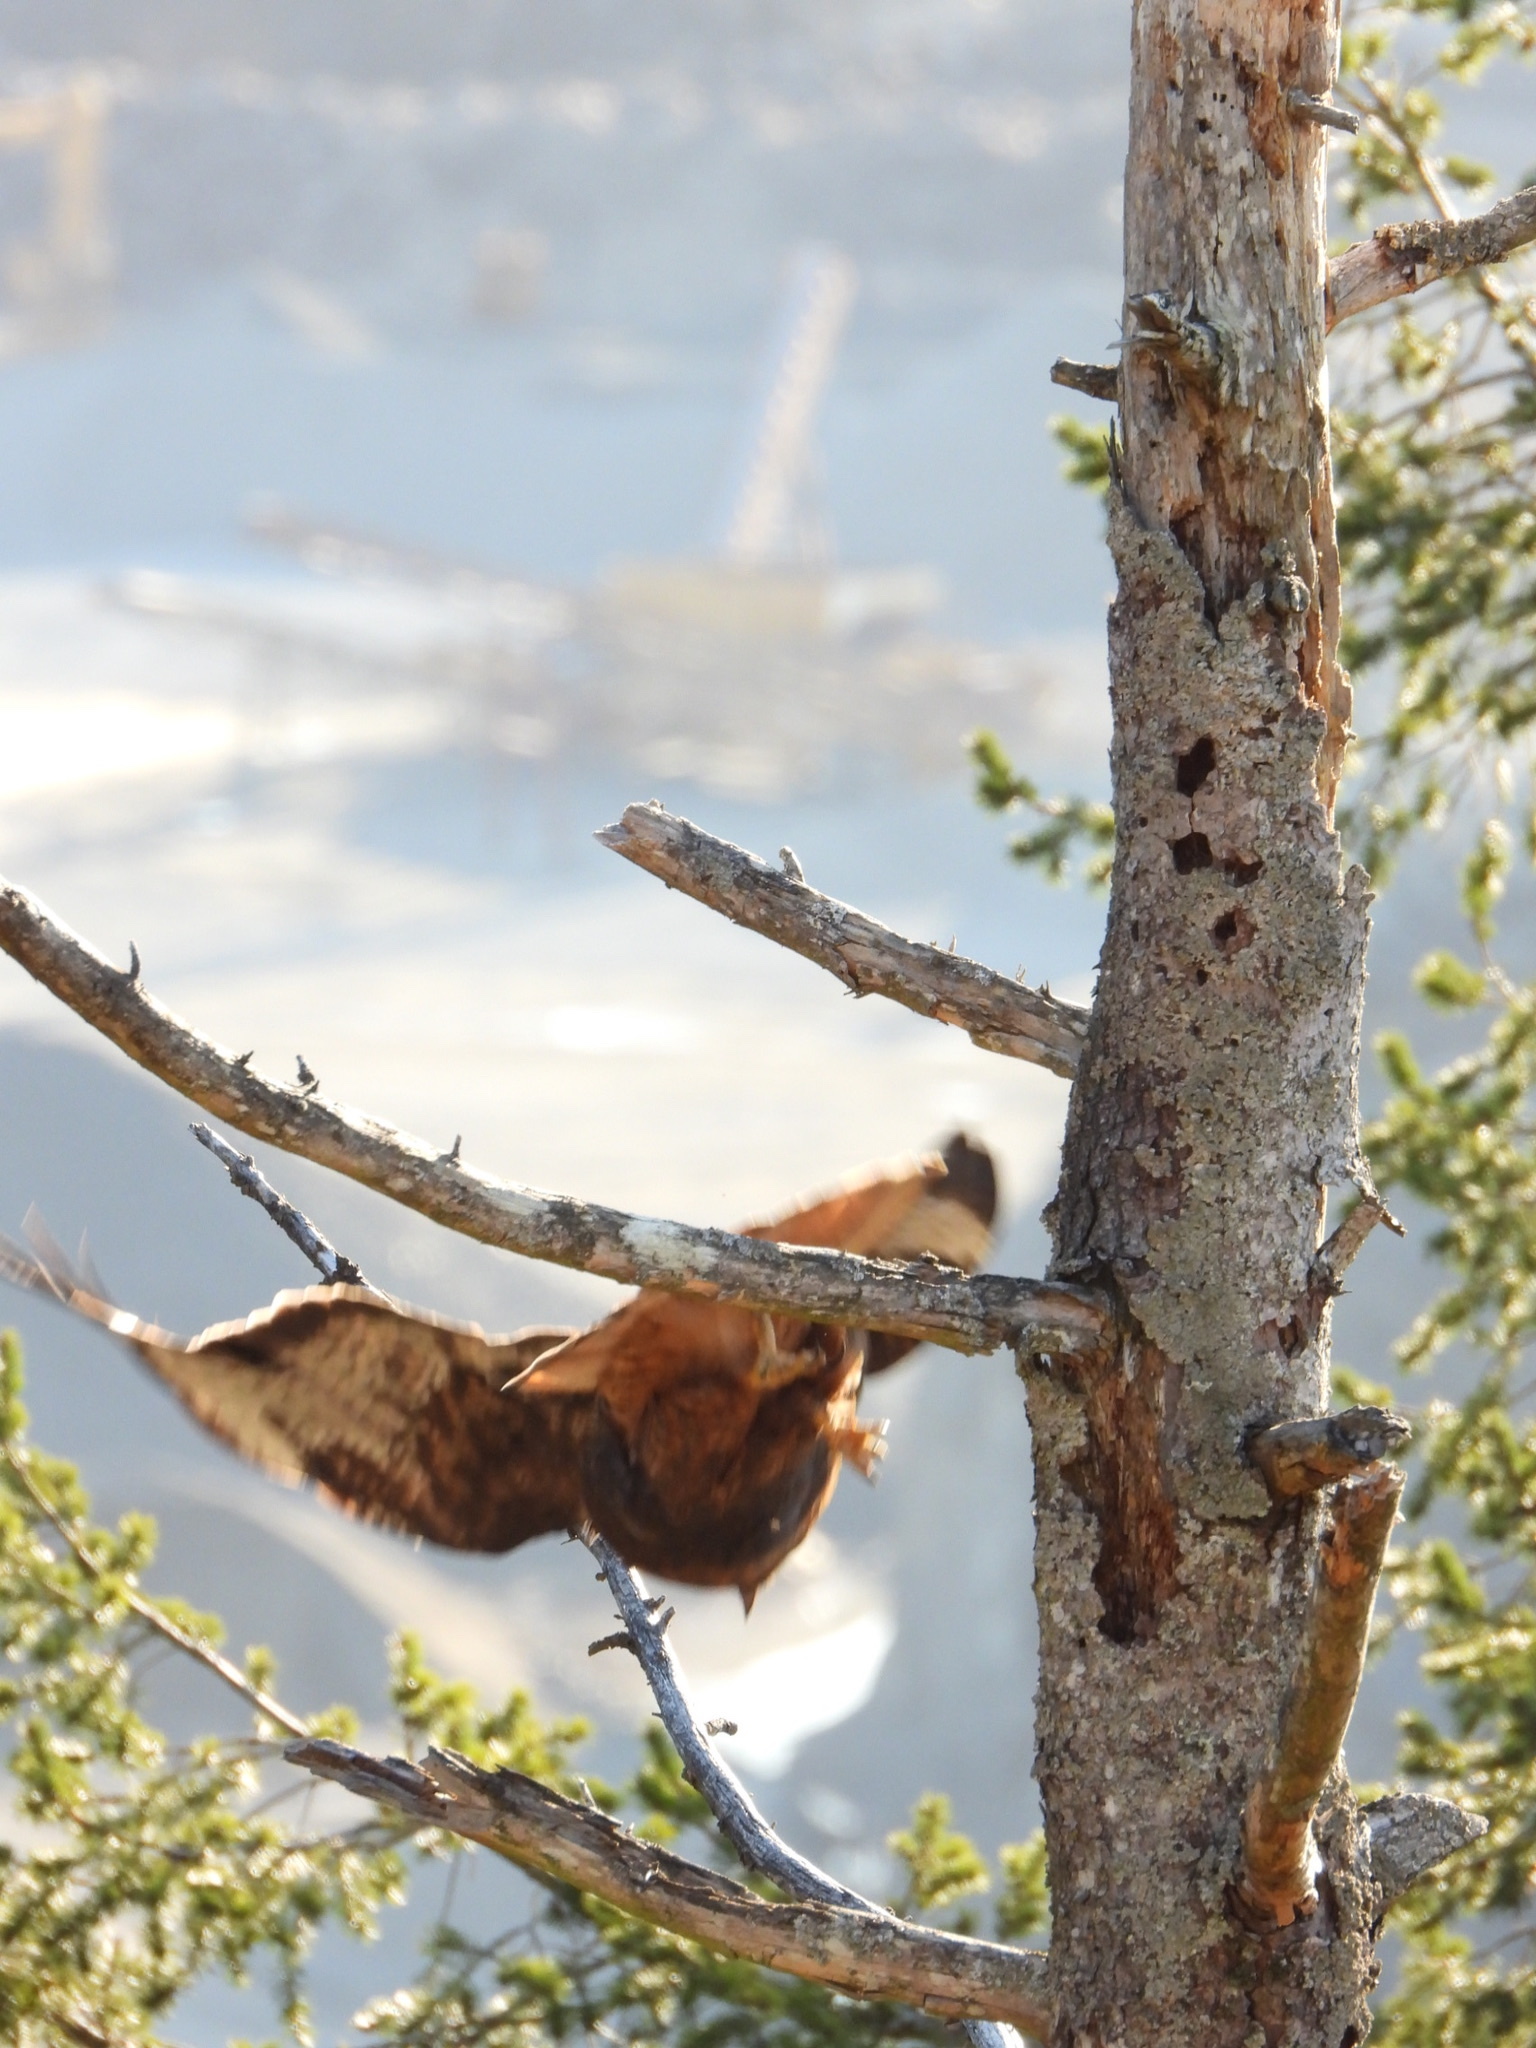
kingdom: Animalia
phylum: Chordata
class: Aves
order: Accipitriformes
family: Accipitridae
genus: Buteo
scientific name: Buteo jamaicensis
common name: Red-tailed hawk
